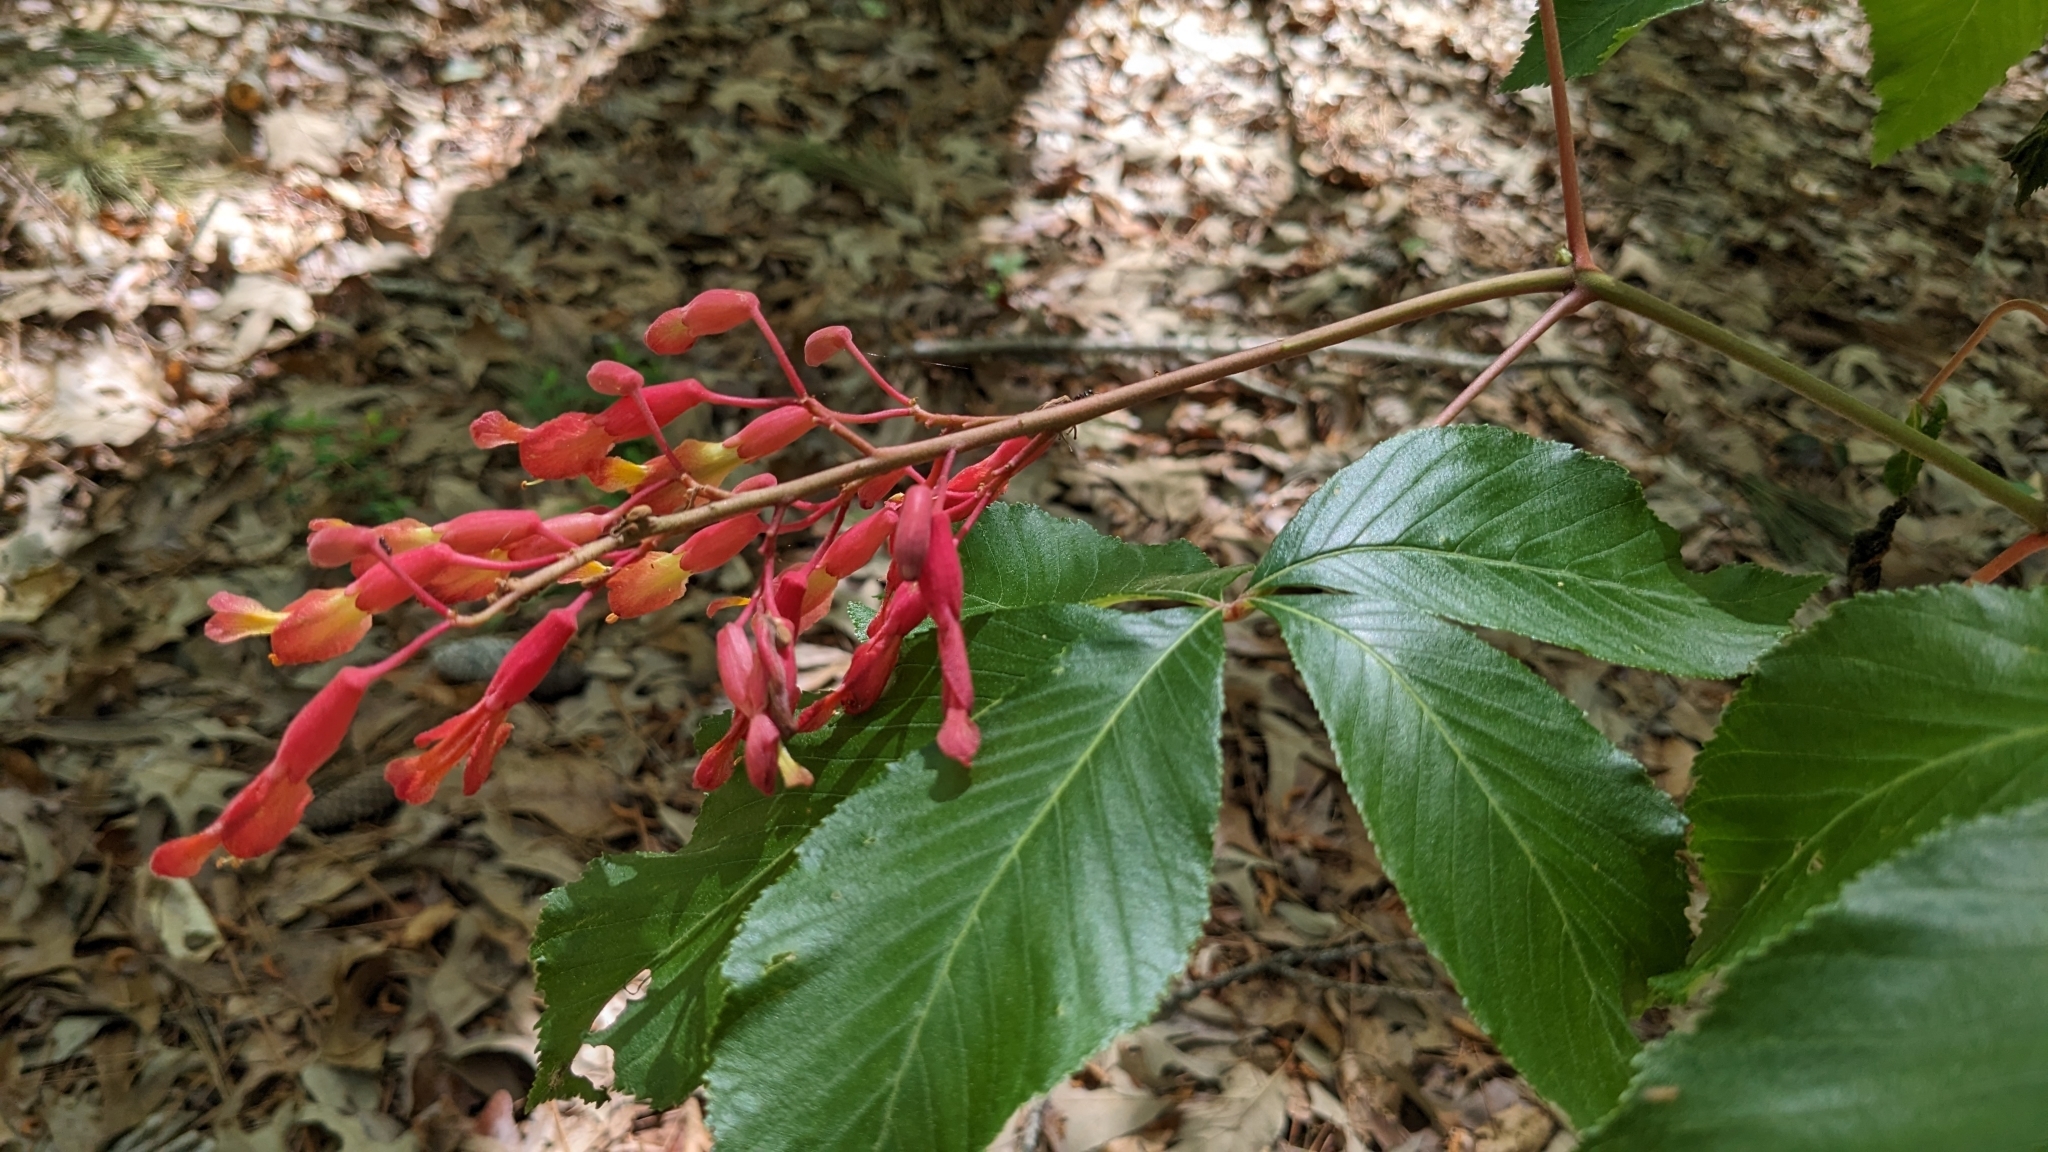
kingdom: Plantae
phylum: Tracheophyta
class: Magnoliopsida
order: Sapindales
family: Sapindaceae
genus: Aesculus
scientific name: Aesculus pavia
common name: Red buckeye
